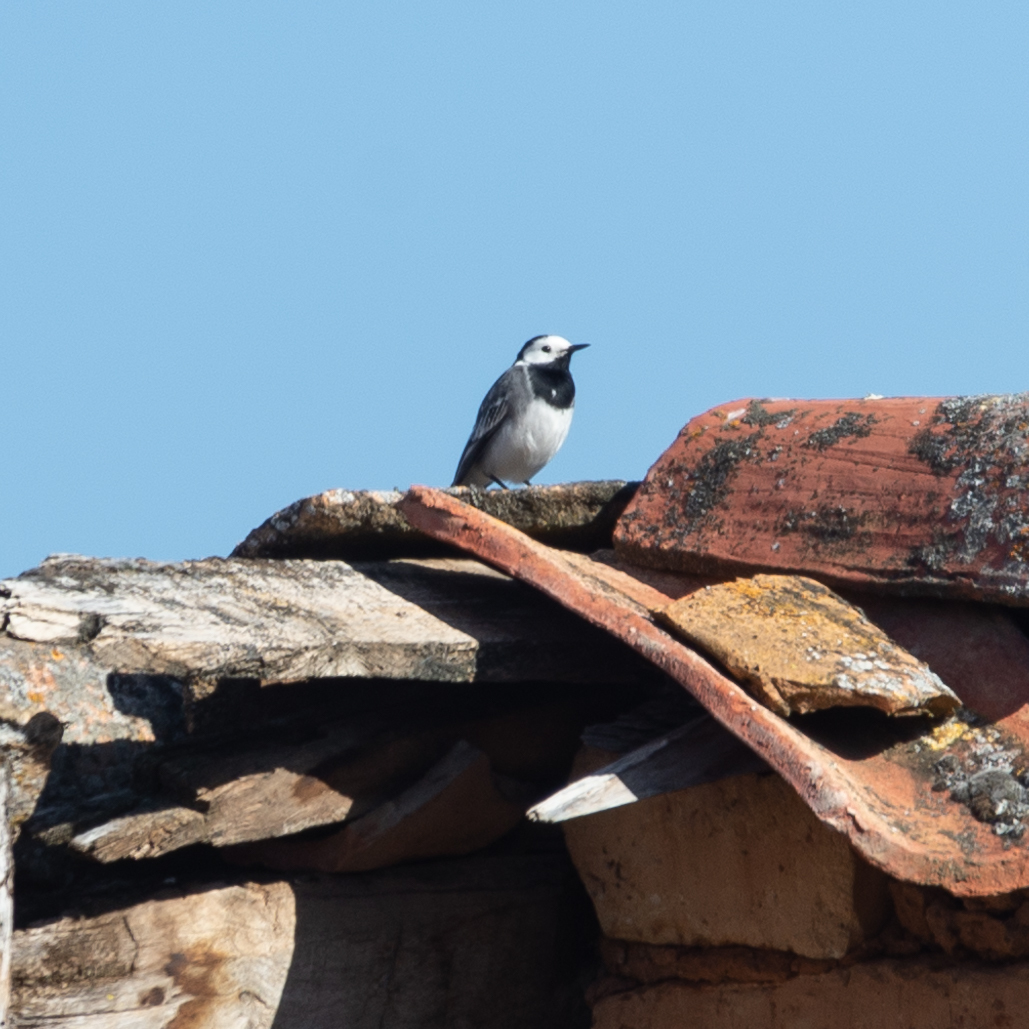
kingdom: Animalia
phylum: Chordata
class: Aves
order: Passeriformes
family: Motacillidae
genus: Motacilla
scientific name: Motacilla alba
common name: White wagtail
